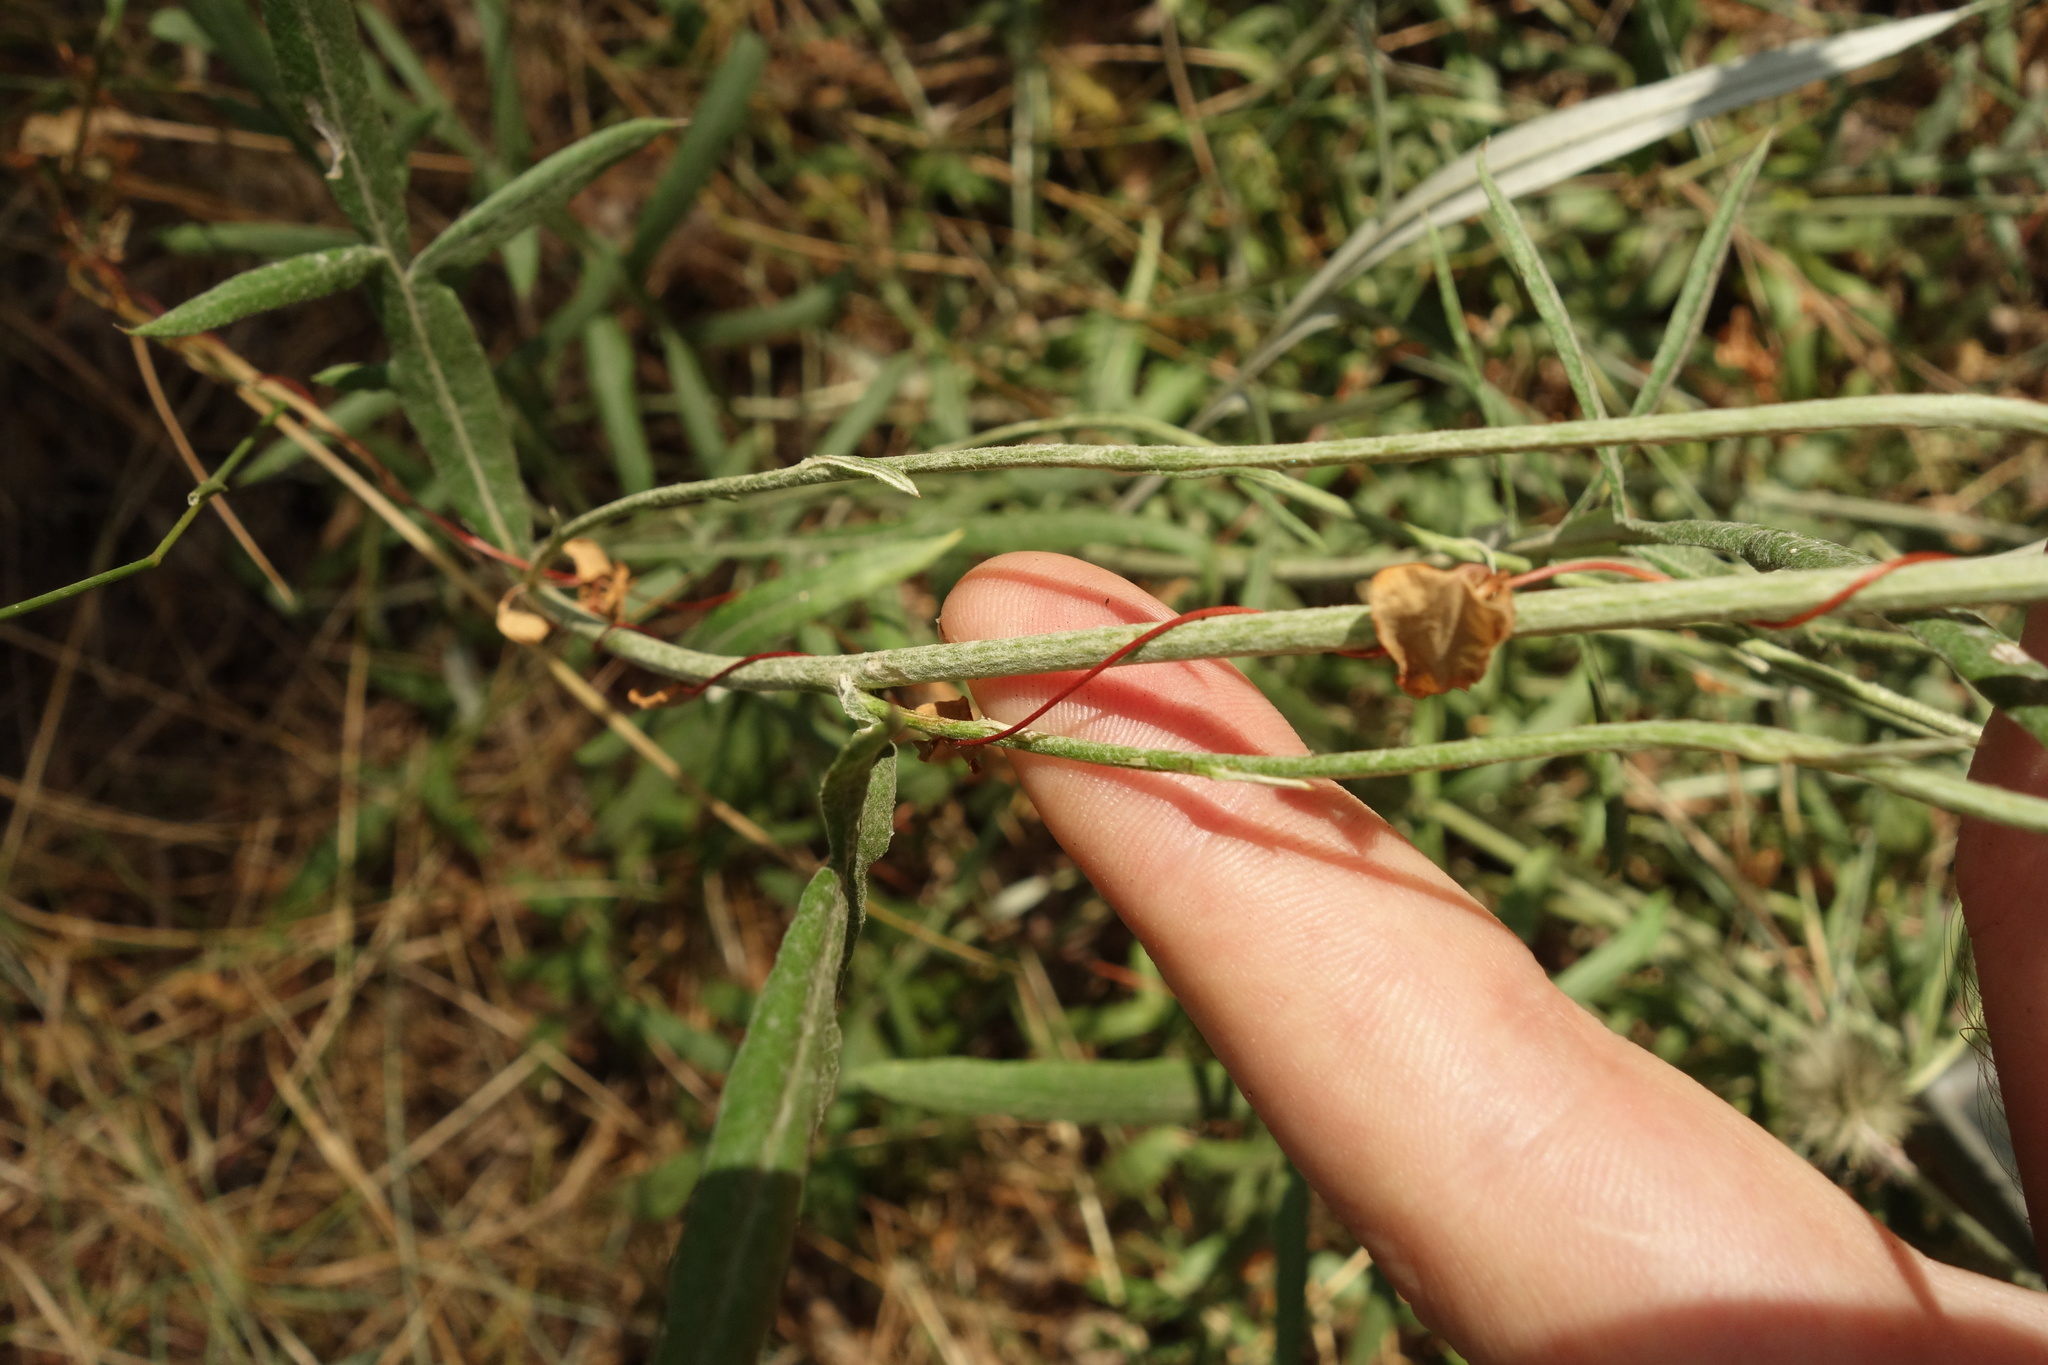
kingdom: Plantae
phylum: Tracheophyta
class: Magnoliopsida
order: Asterales
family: Asteraceae
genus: Jurinea
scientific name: Jurinea cyanoides
